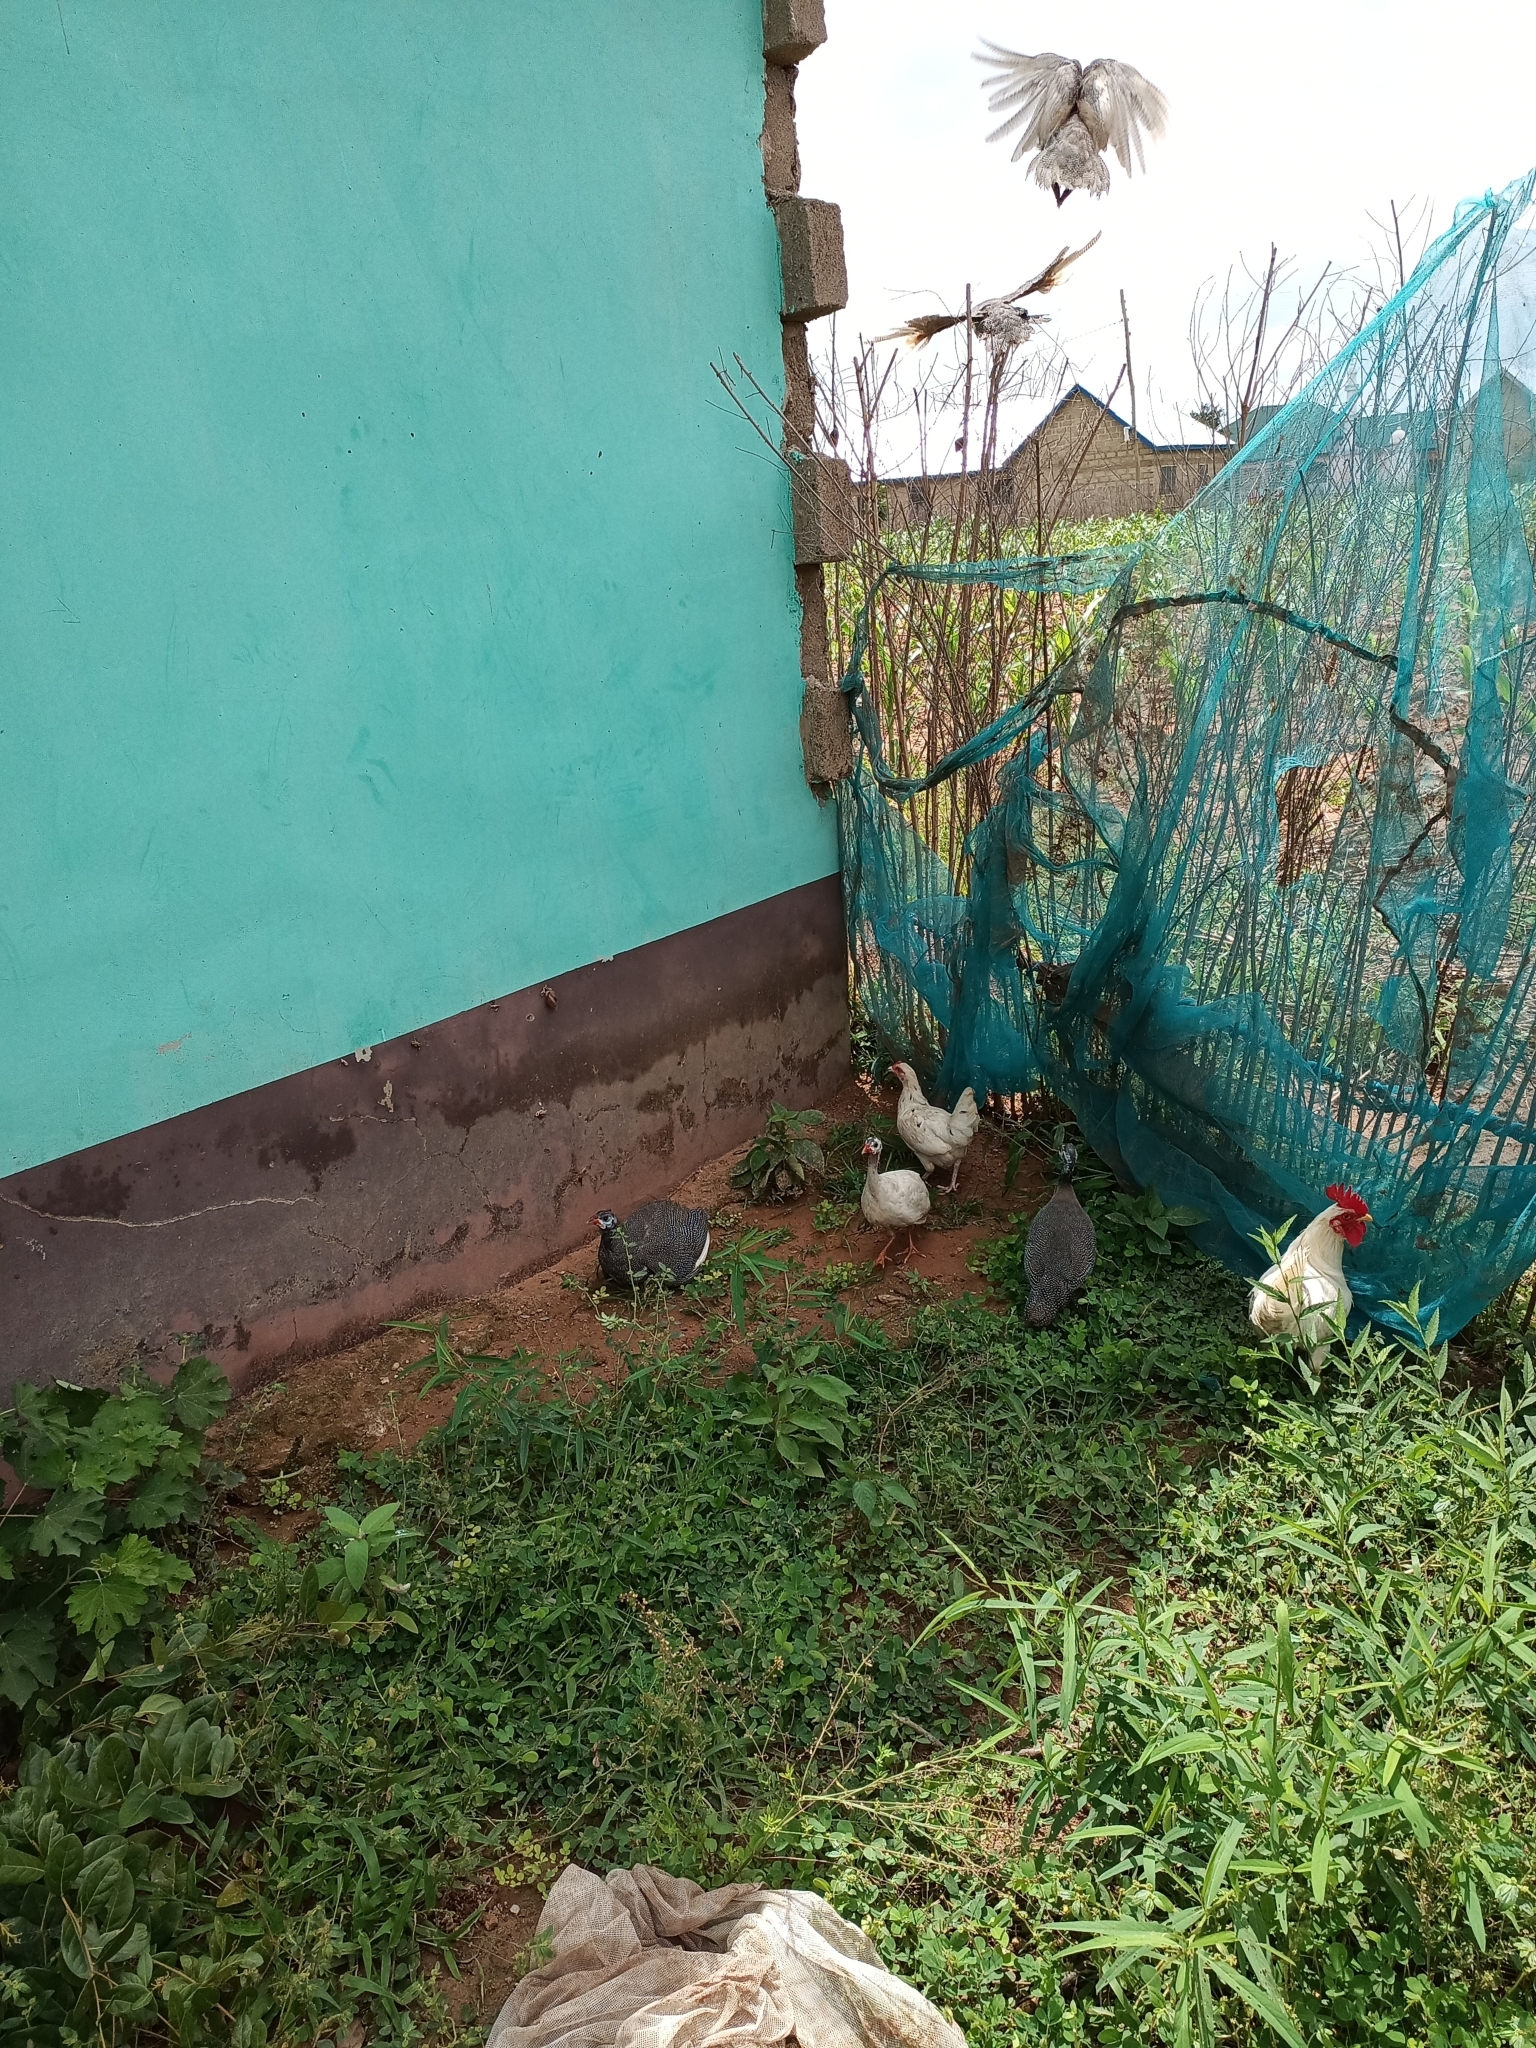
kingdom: Animalia
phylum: Chordata
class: Aves
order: Galliformes
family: Numididae
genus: Numida
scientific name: Numida meleagris
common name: Helmeted guineafowl
